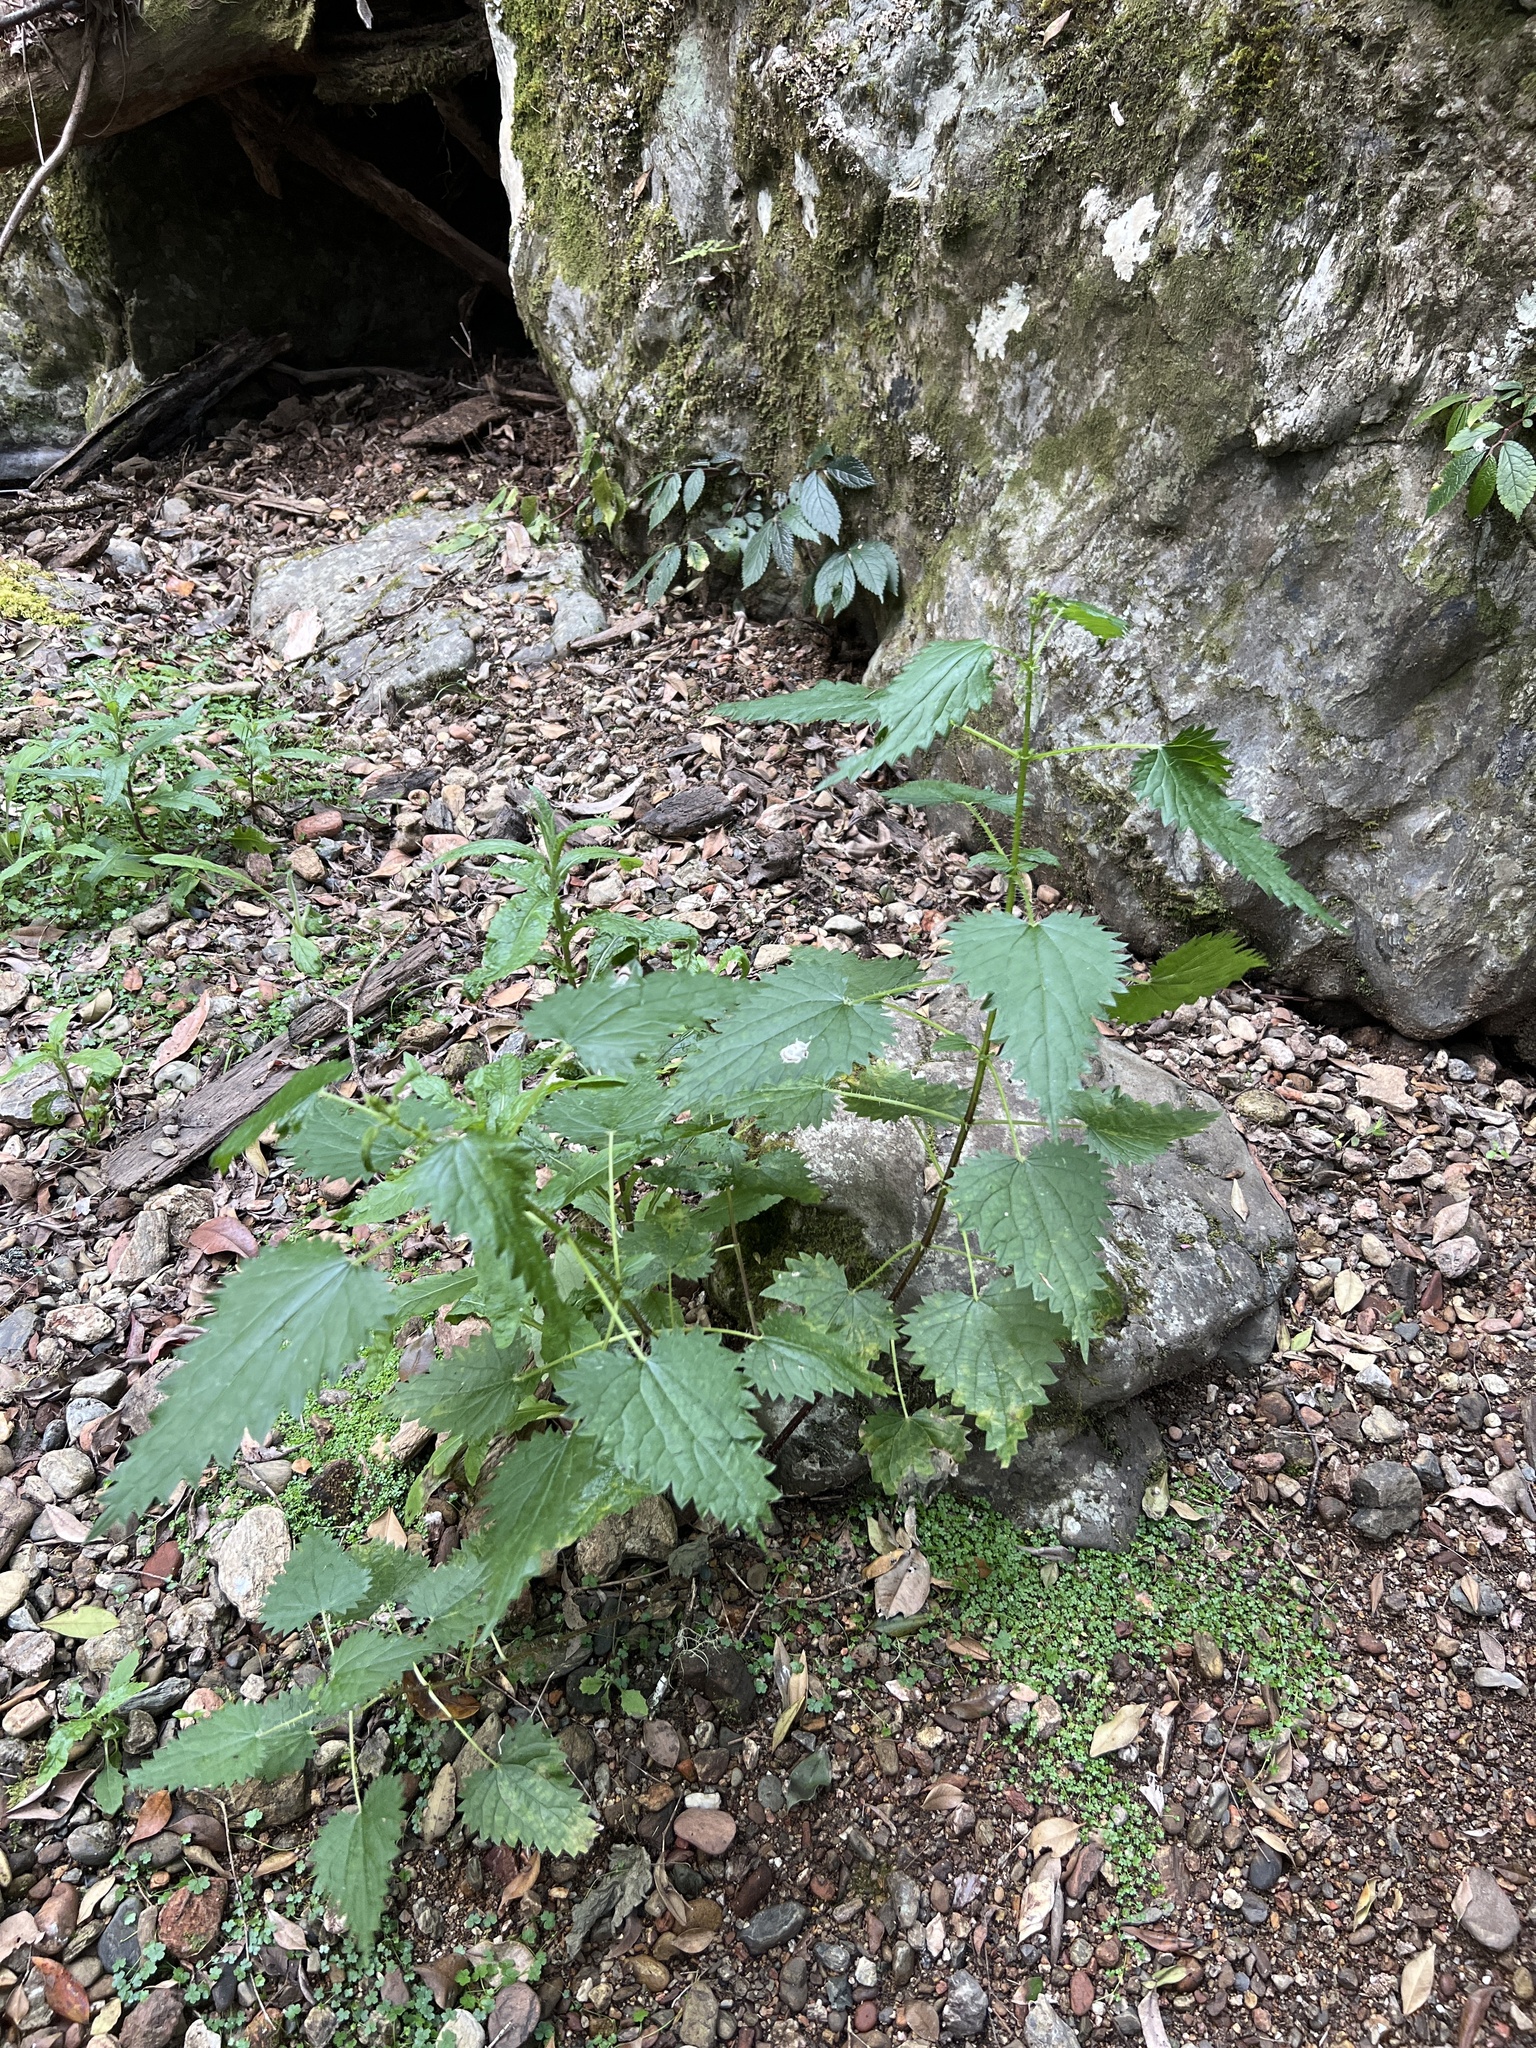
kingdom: Plantae
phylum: Tracheophyta
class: Magnoliopsida
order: Rosales
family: Urticaceae
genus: Urtica
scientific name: Urtica incisa
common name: Scrub nettle
